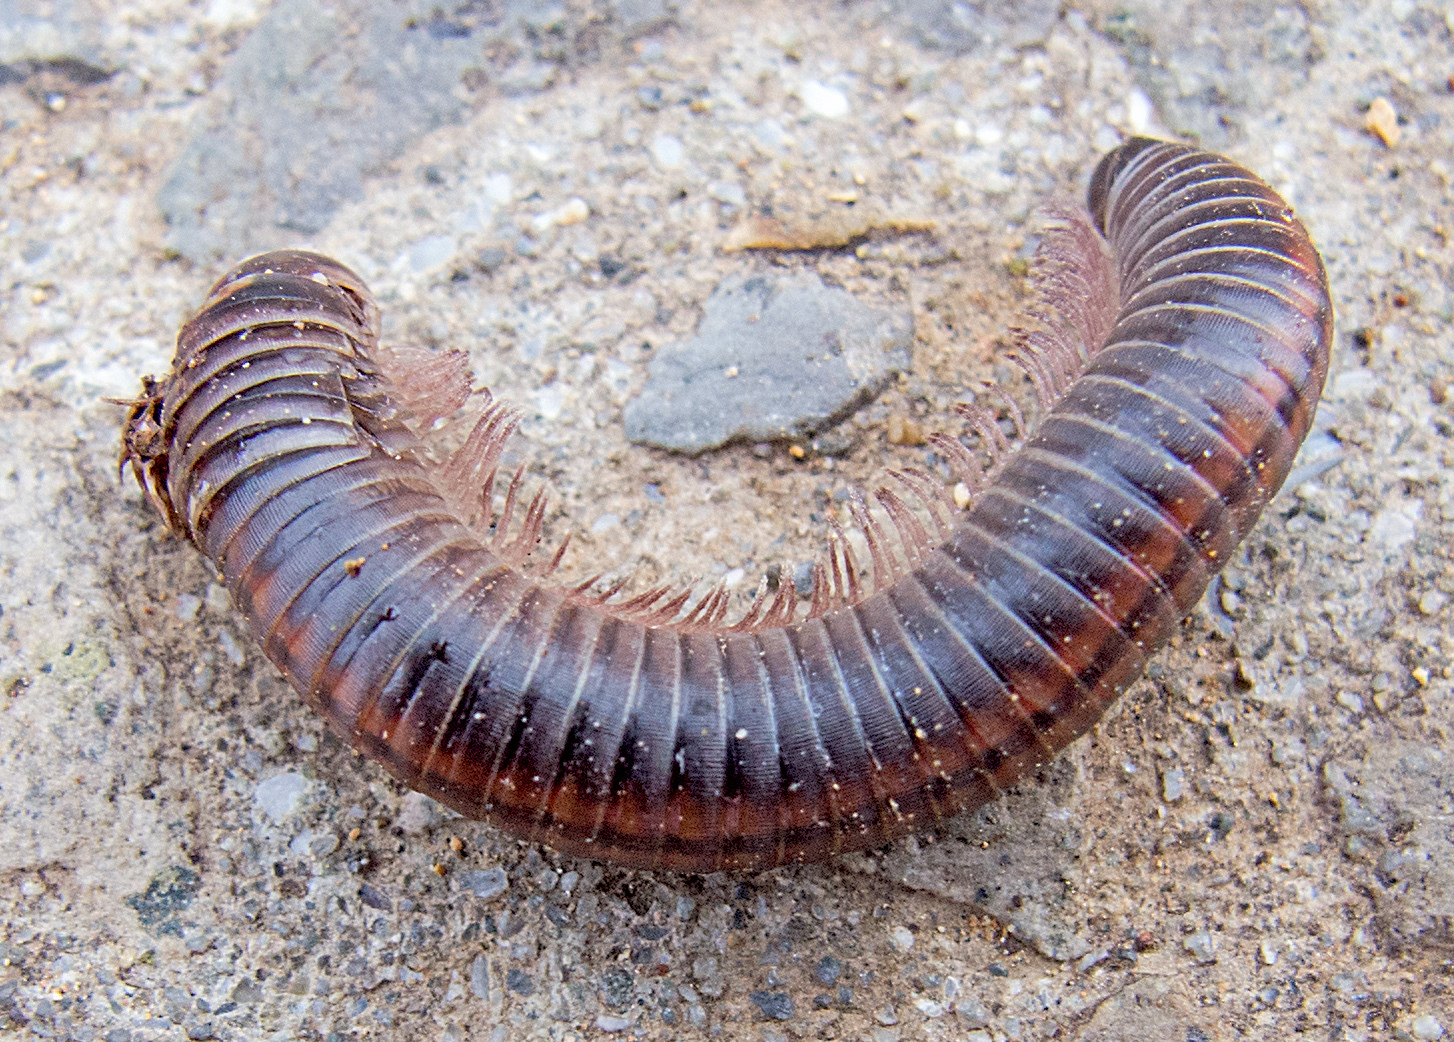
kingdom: Animalia
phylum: Arthropoda
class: Diplopoda
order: Julida
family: Julidae
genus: Ommatoiulus
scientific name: Ommatoiulus sabulosus
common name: Striped millipede
